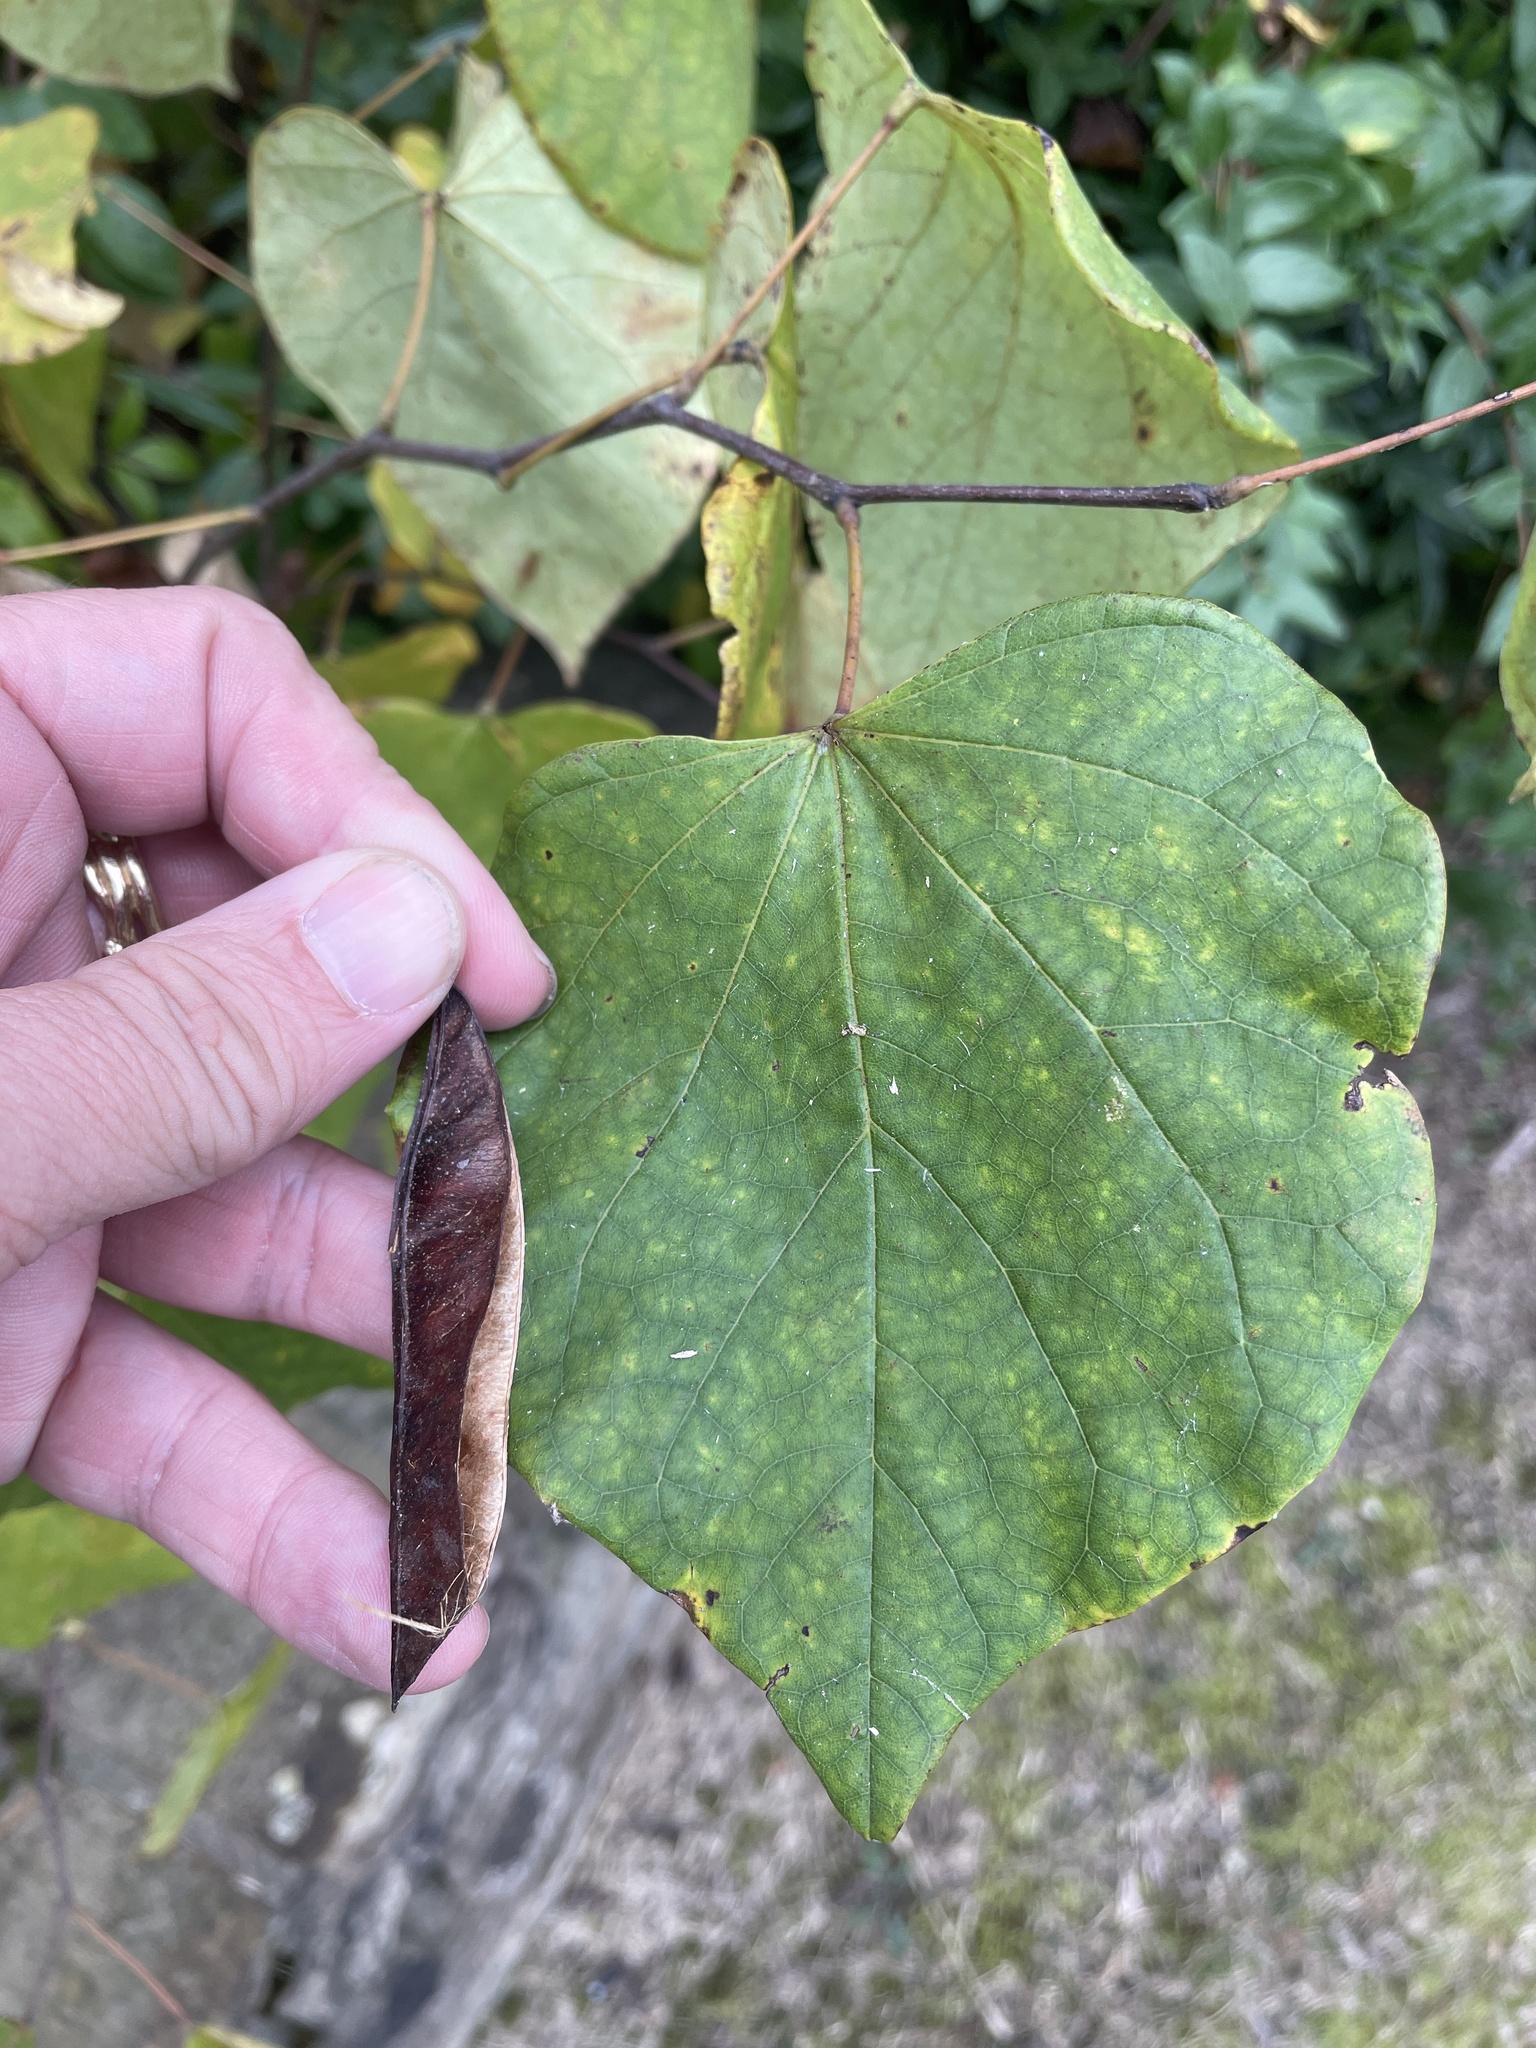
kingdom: Plantae
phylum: Tracheophyta
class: Magnoliopsida
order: Fabales
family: Fabaceae
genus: Cercis
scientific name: Cercis canadensis
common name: Eastern redbud
